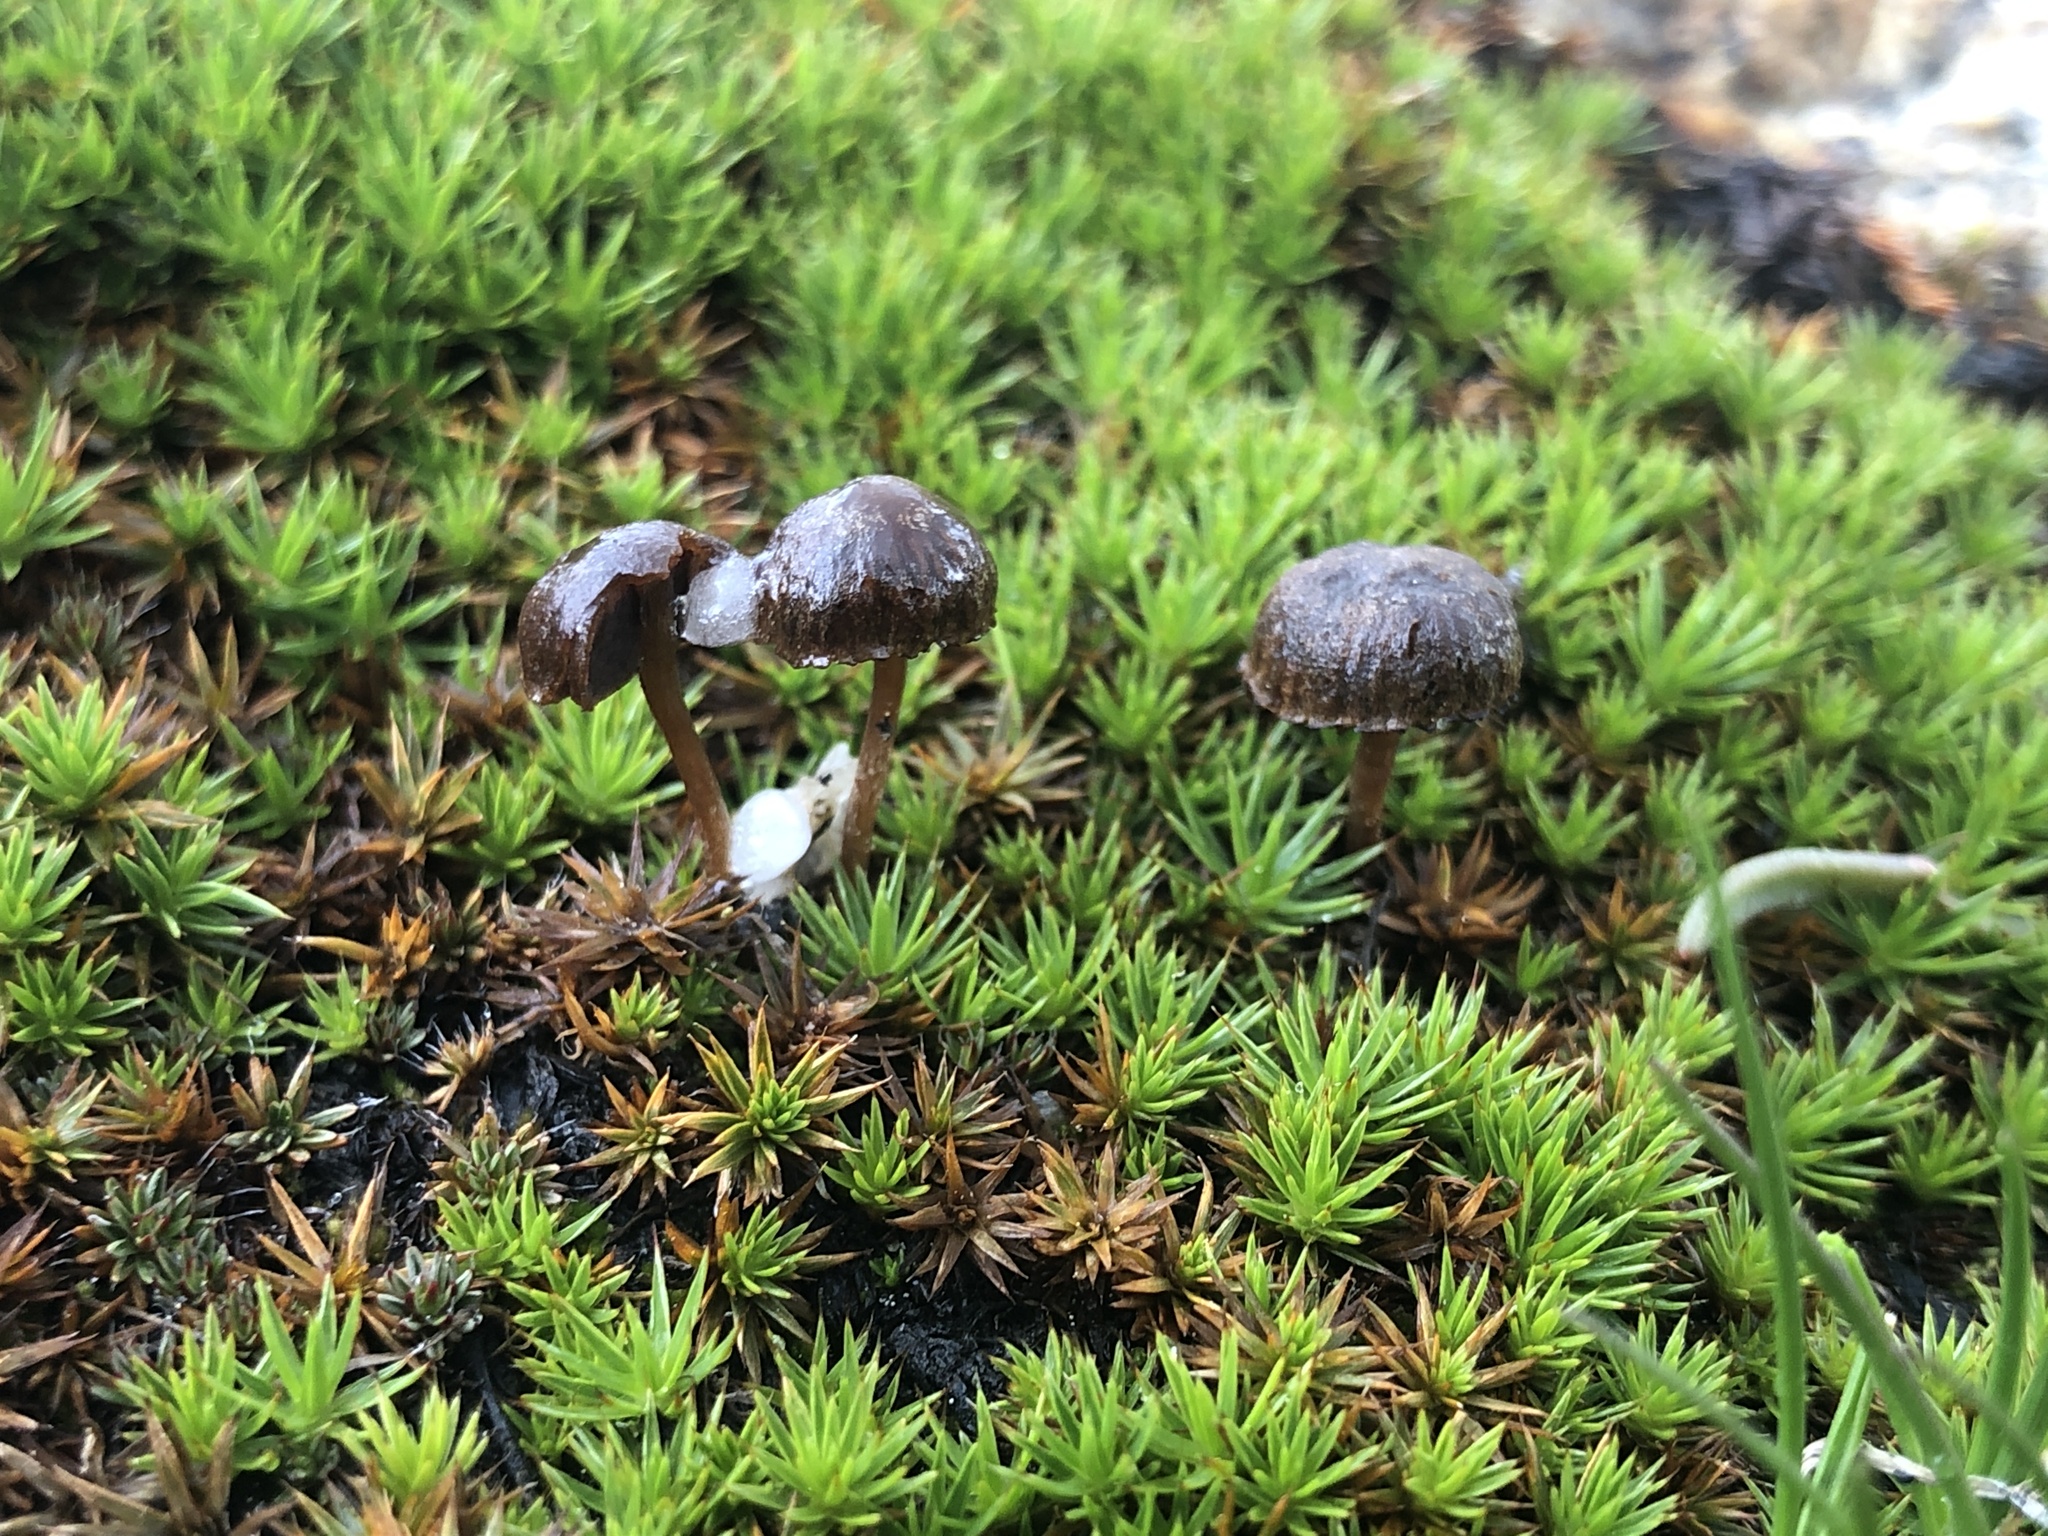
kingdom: Fungi
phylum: Basidiomycota
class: Agaricomycetes
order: Agaricales
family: Strophariaceae
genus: Deconica
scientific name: Deconica montana
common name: Mountain moss deconica
